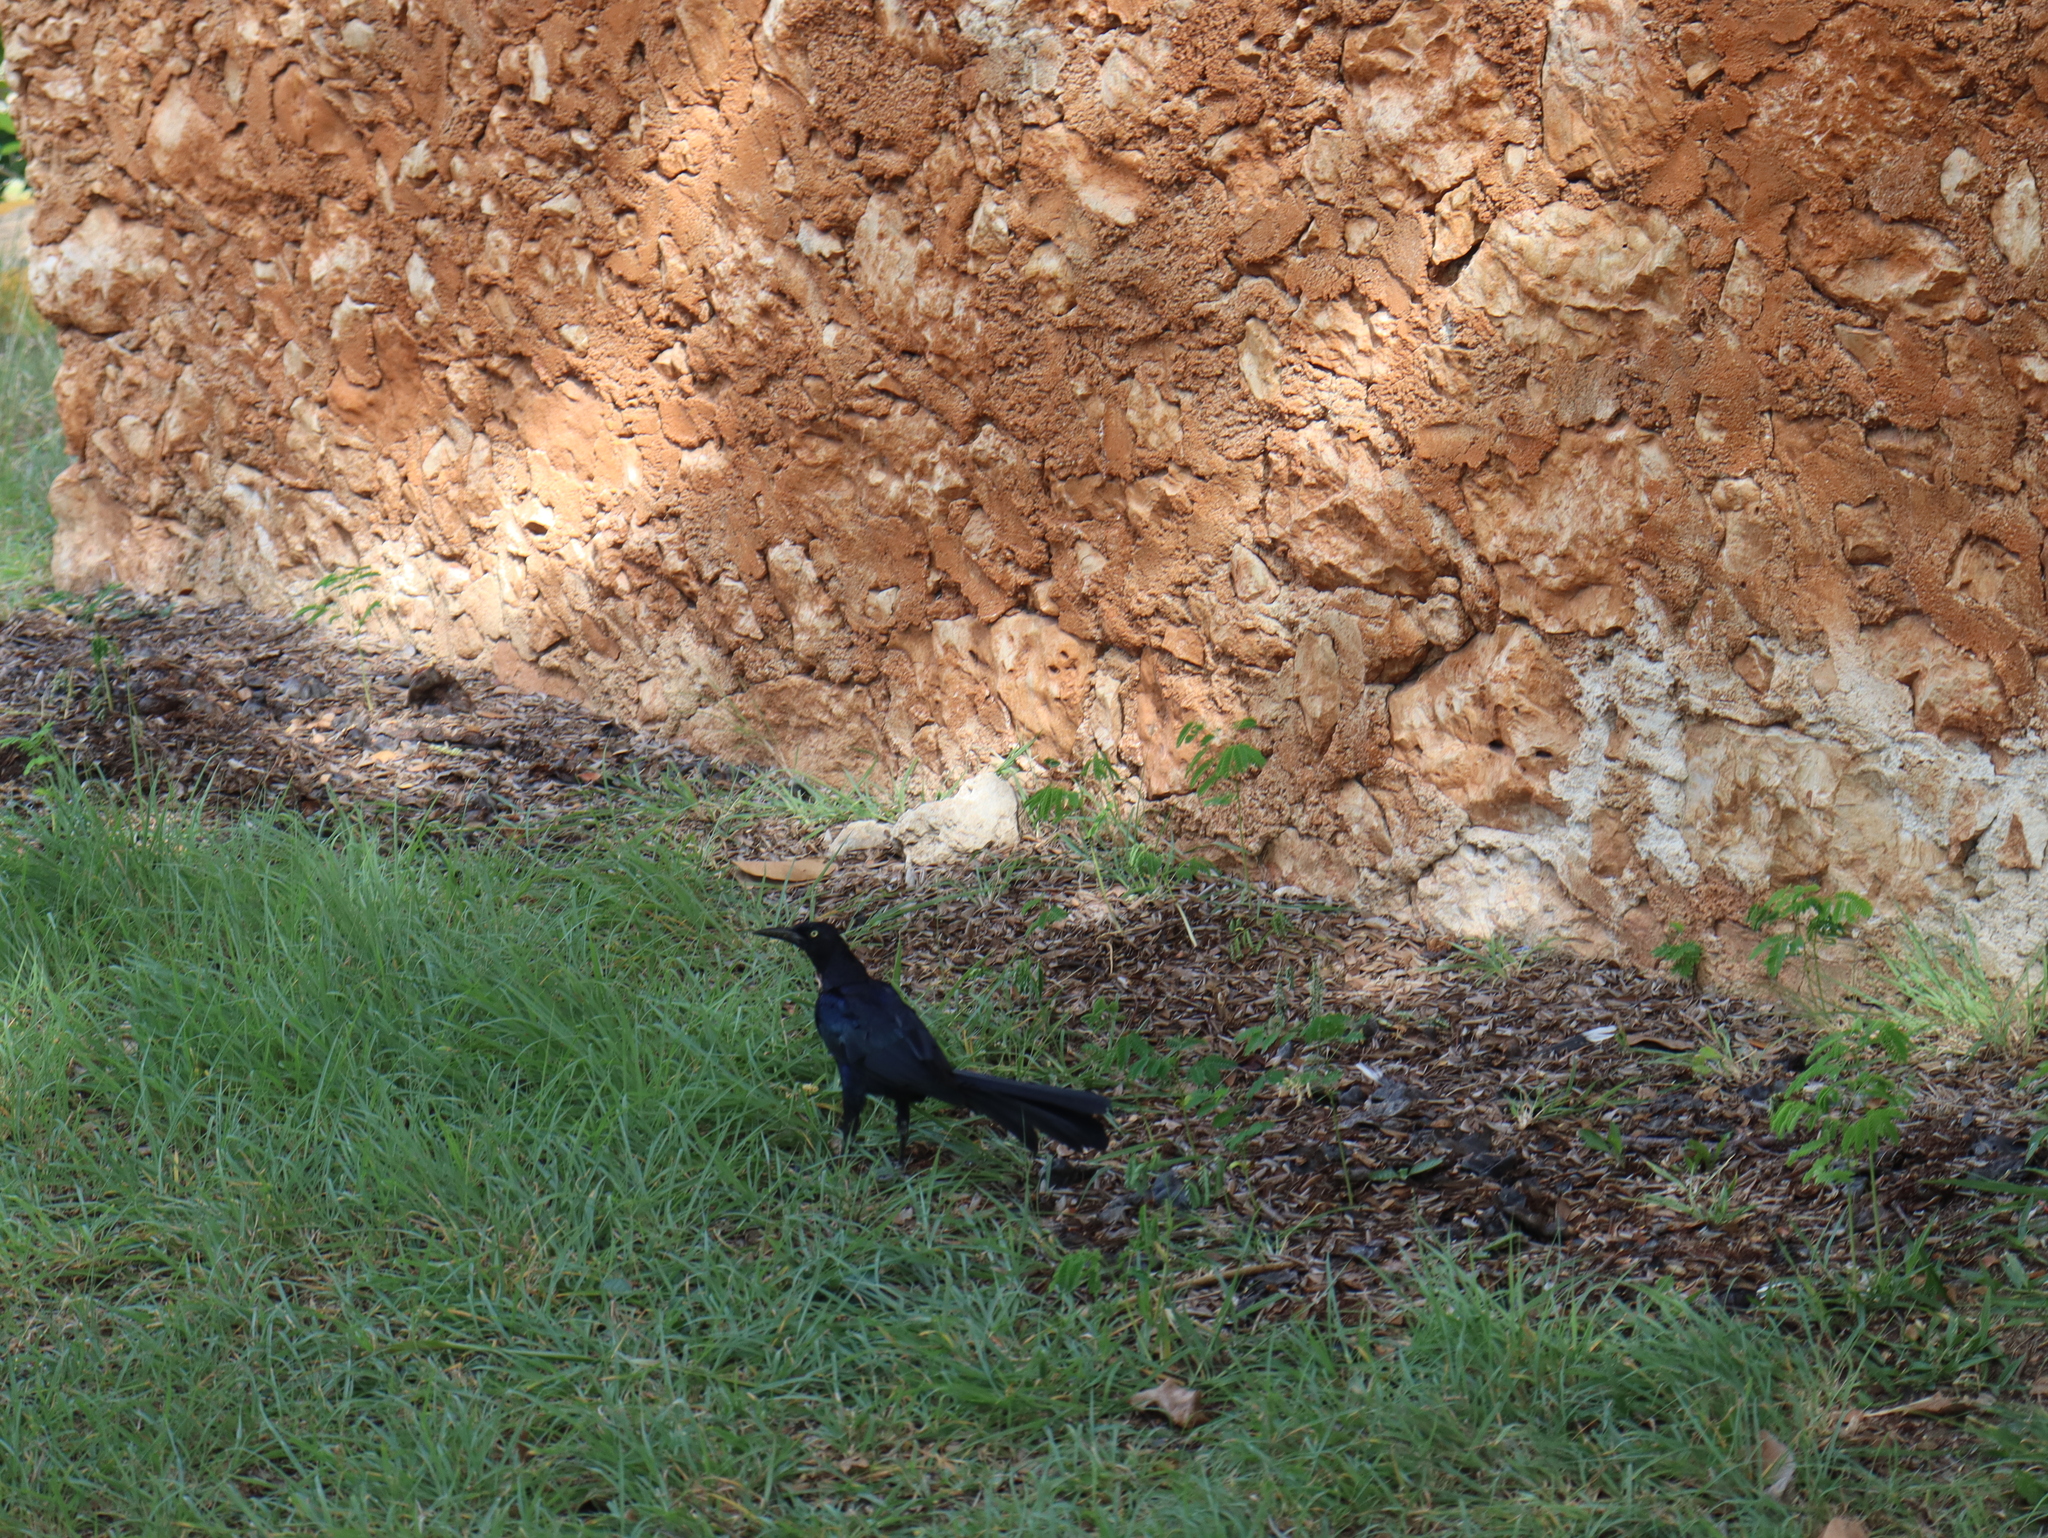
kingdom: Animalia
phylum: Chordata
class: Aves
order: Passeriformes
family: Icteridae
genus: Quiscalus
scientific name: Quiscalus mexicanus
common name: Great-tailed grackle
